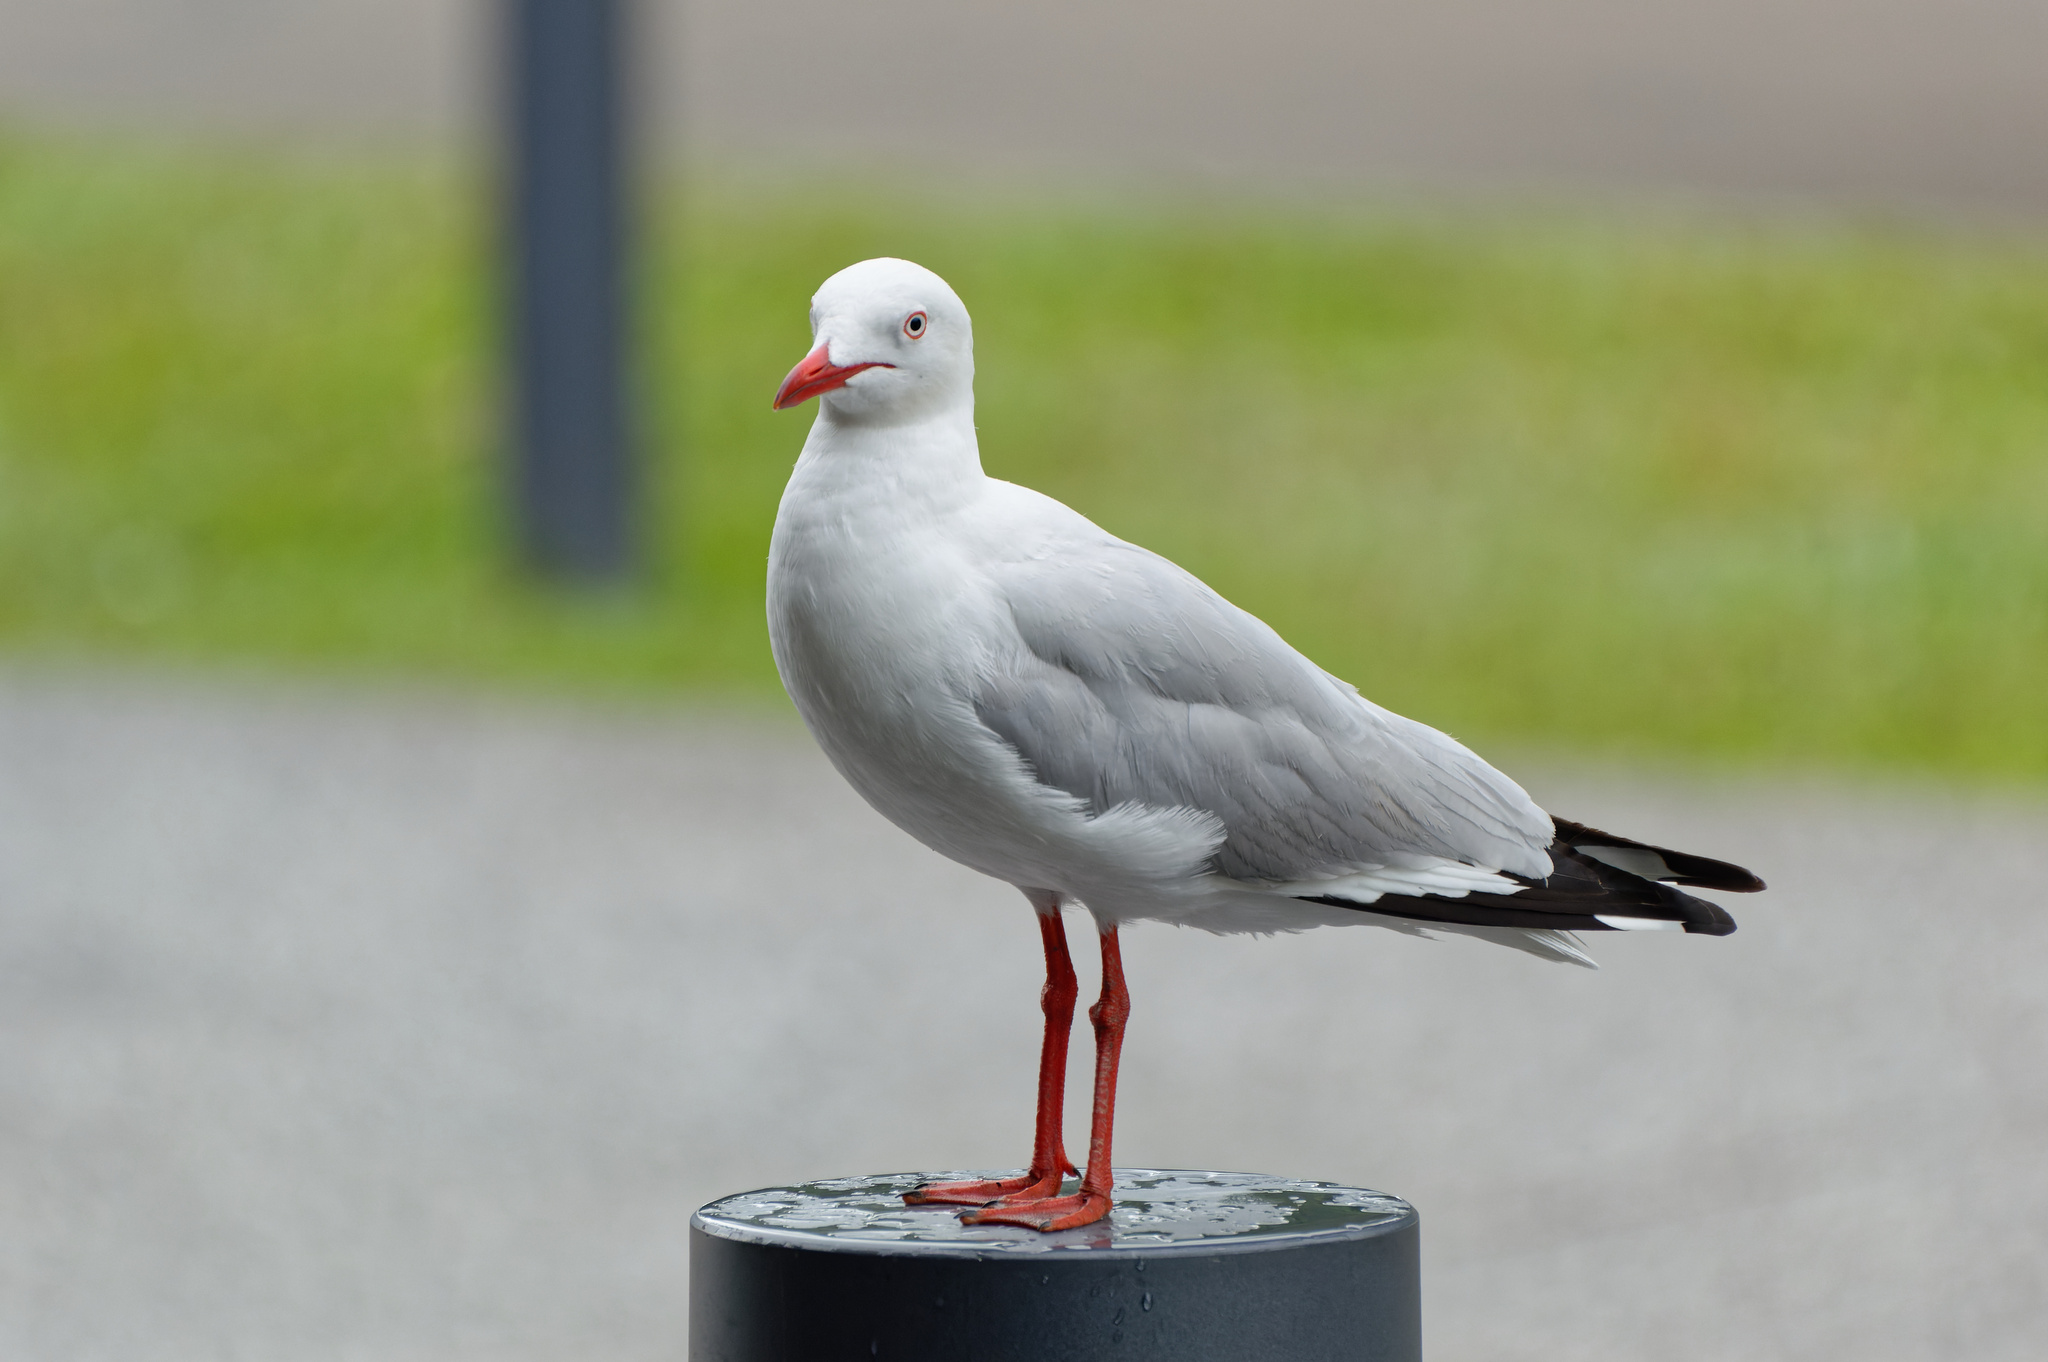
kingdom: Animalia
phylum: Chordata
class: Aves
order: Charadriiformes
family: Laridae
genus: Chroicocephalus
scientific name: Chroicocephalus novaehollandiae
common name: Silver gull
